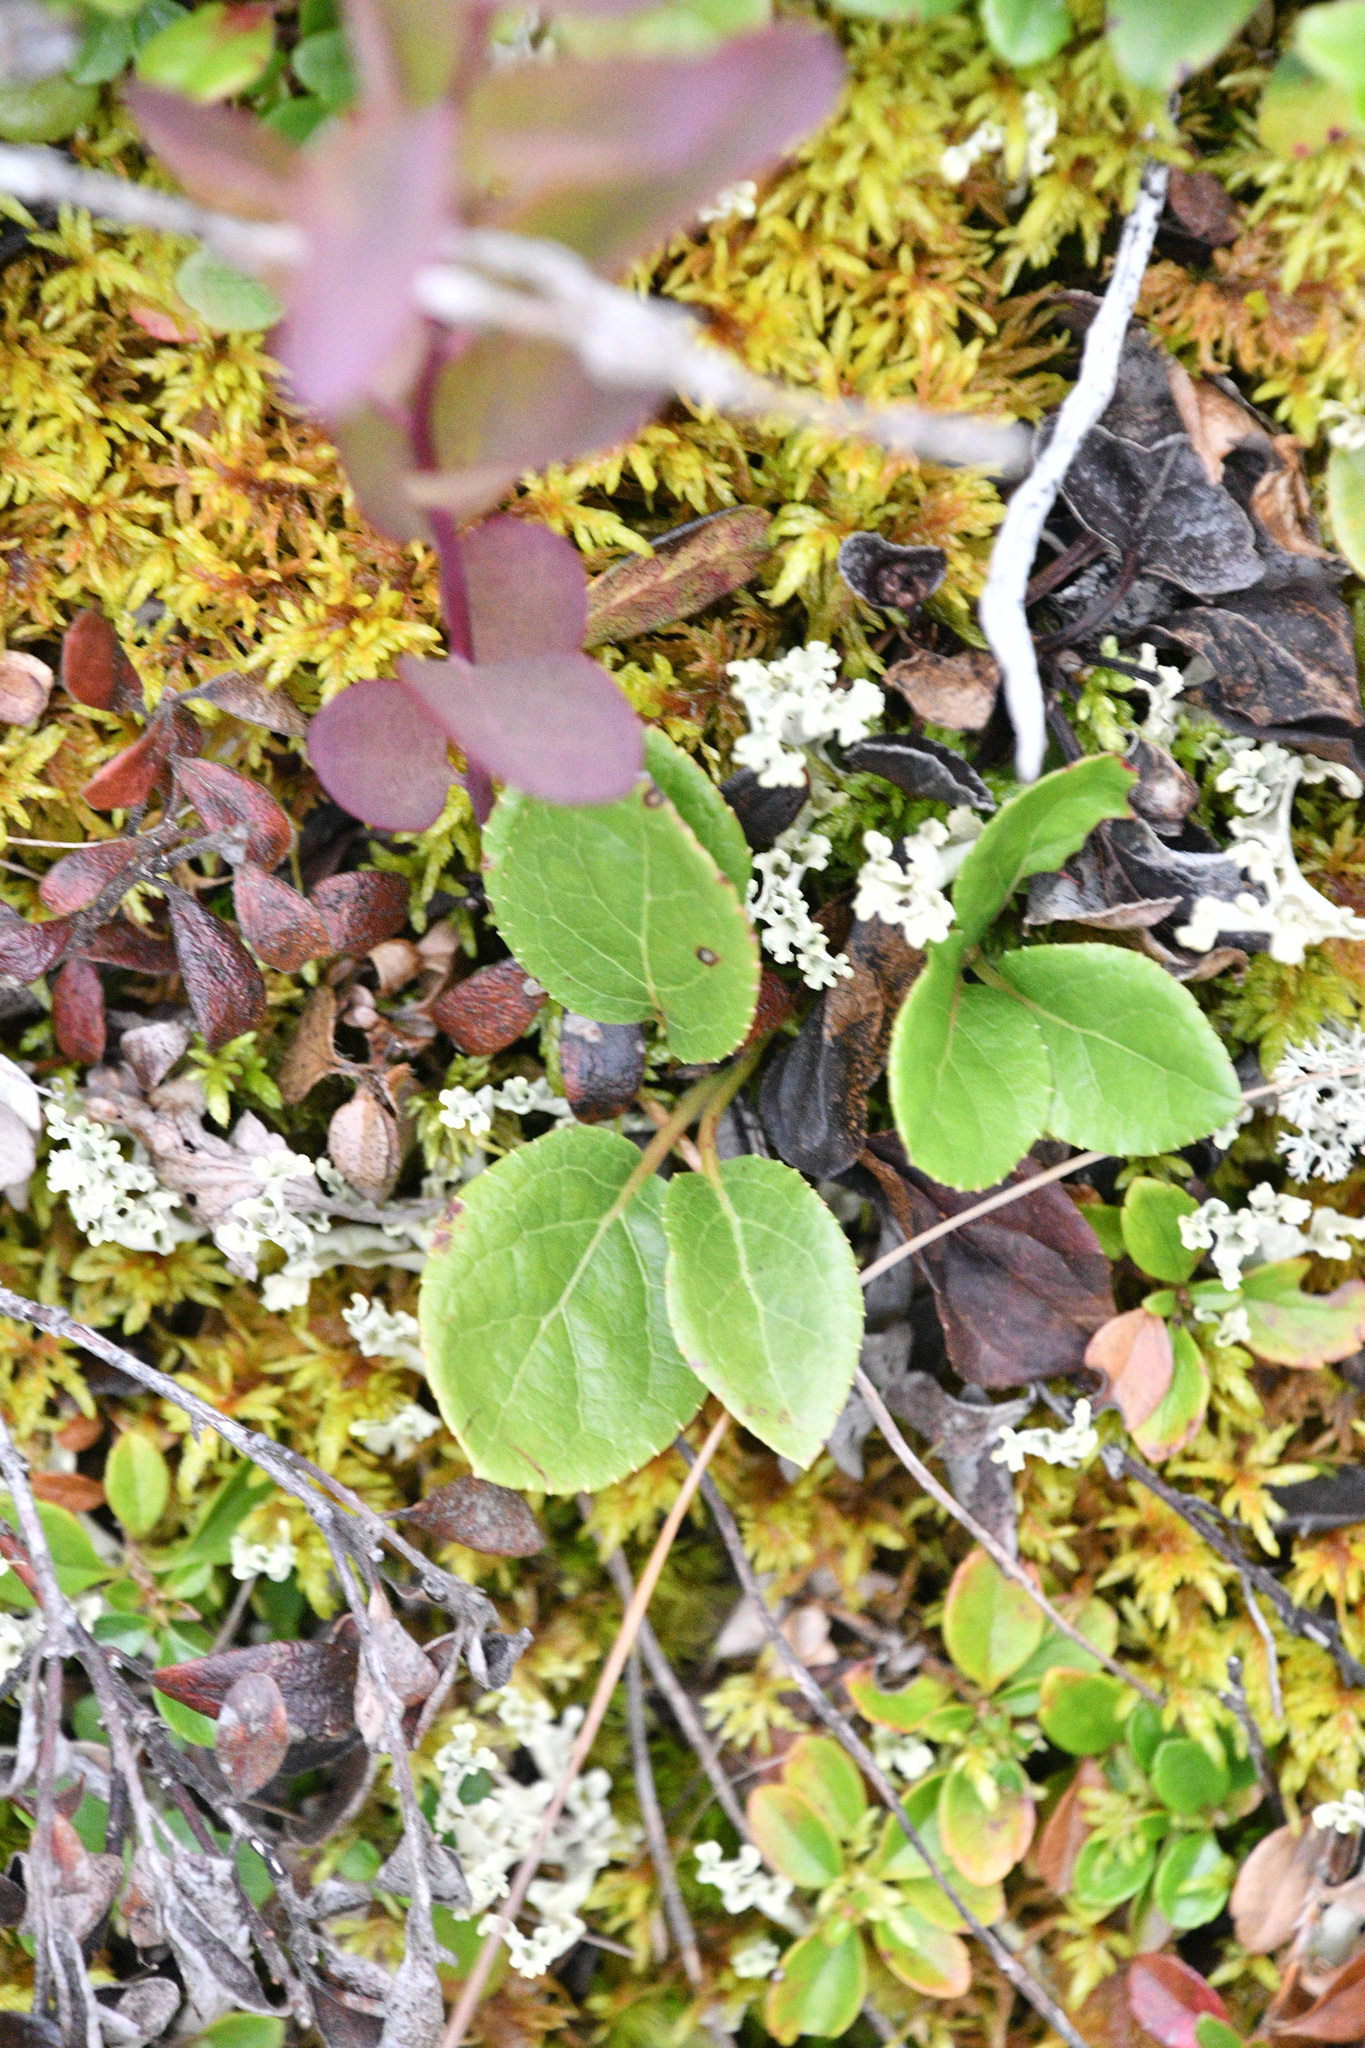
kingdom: Plantae
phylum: Tracheophyta
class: Magnoliopsida
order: Ericales
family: Ericaceae
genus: Orthilia
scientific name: Orthilia secunda
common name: One-sided orthilia
